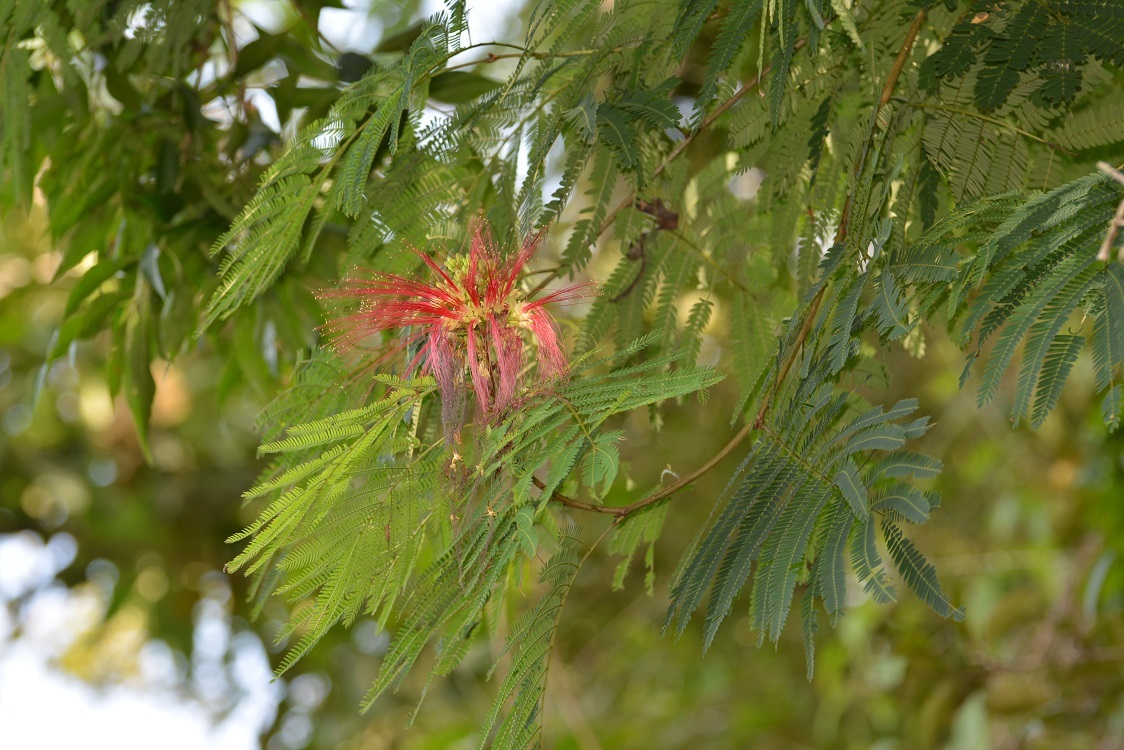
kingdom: Plantae
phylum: Tracheophyta
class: Magnoliopsida
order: Fabales
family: Fabaceae
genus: Calliandra
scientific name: Calliandra houstoniana
